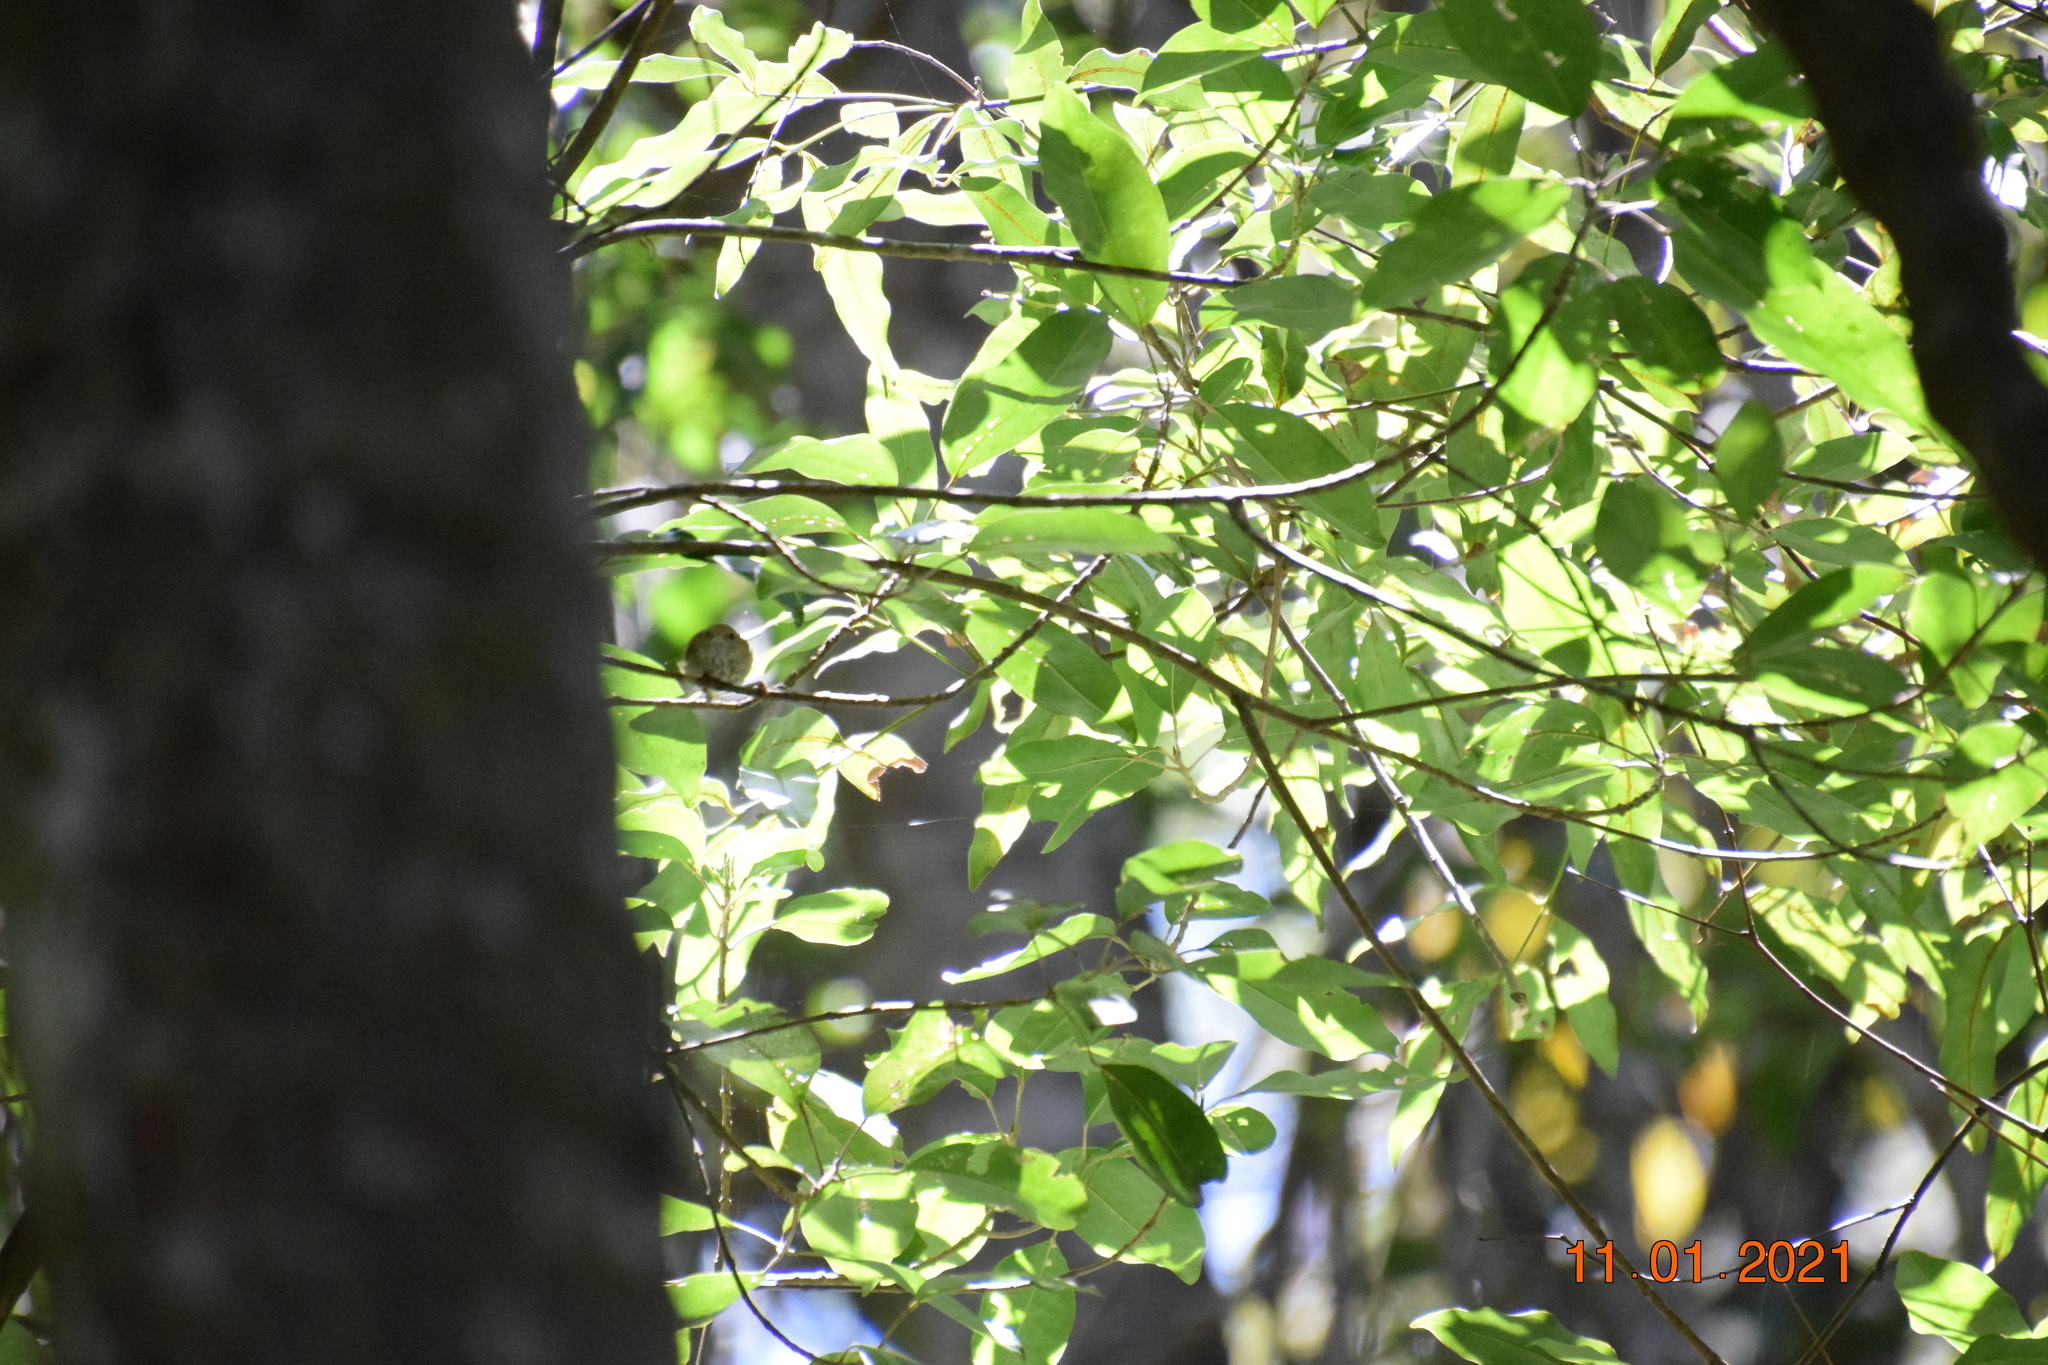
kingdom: Animalia
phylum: Chordata
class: Aves
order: Passeriformes
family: Acanthizidae
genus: Acanthiza
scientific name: Acanthiza pusilla
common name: Brown thornbill
